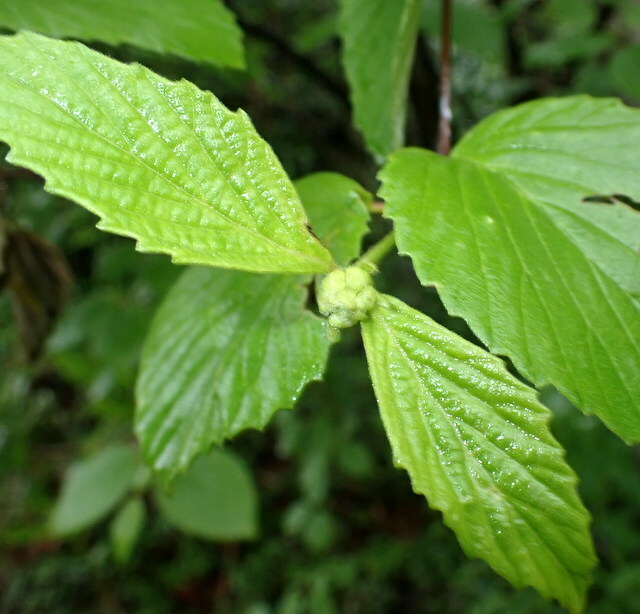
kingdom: Plantae
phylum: Tracheophyta
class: Magnoliopsida
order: Dipsacales
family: Viburnaceae
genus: Viburnum
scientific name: Viburnum scabrellum
